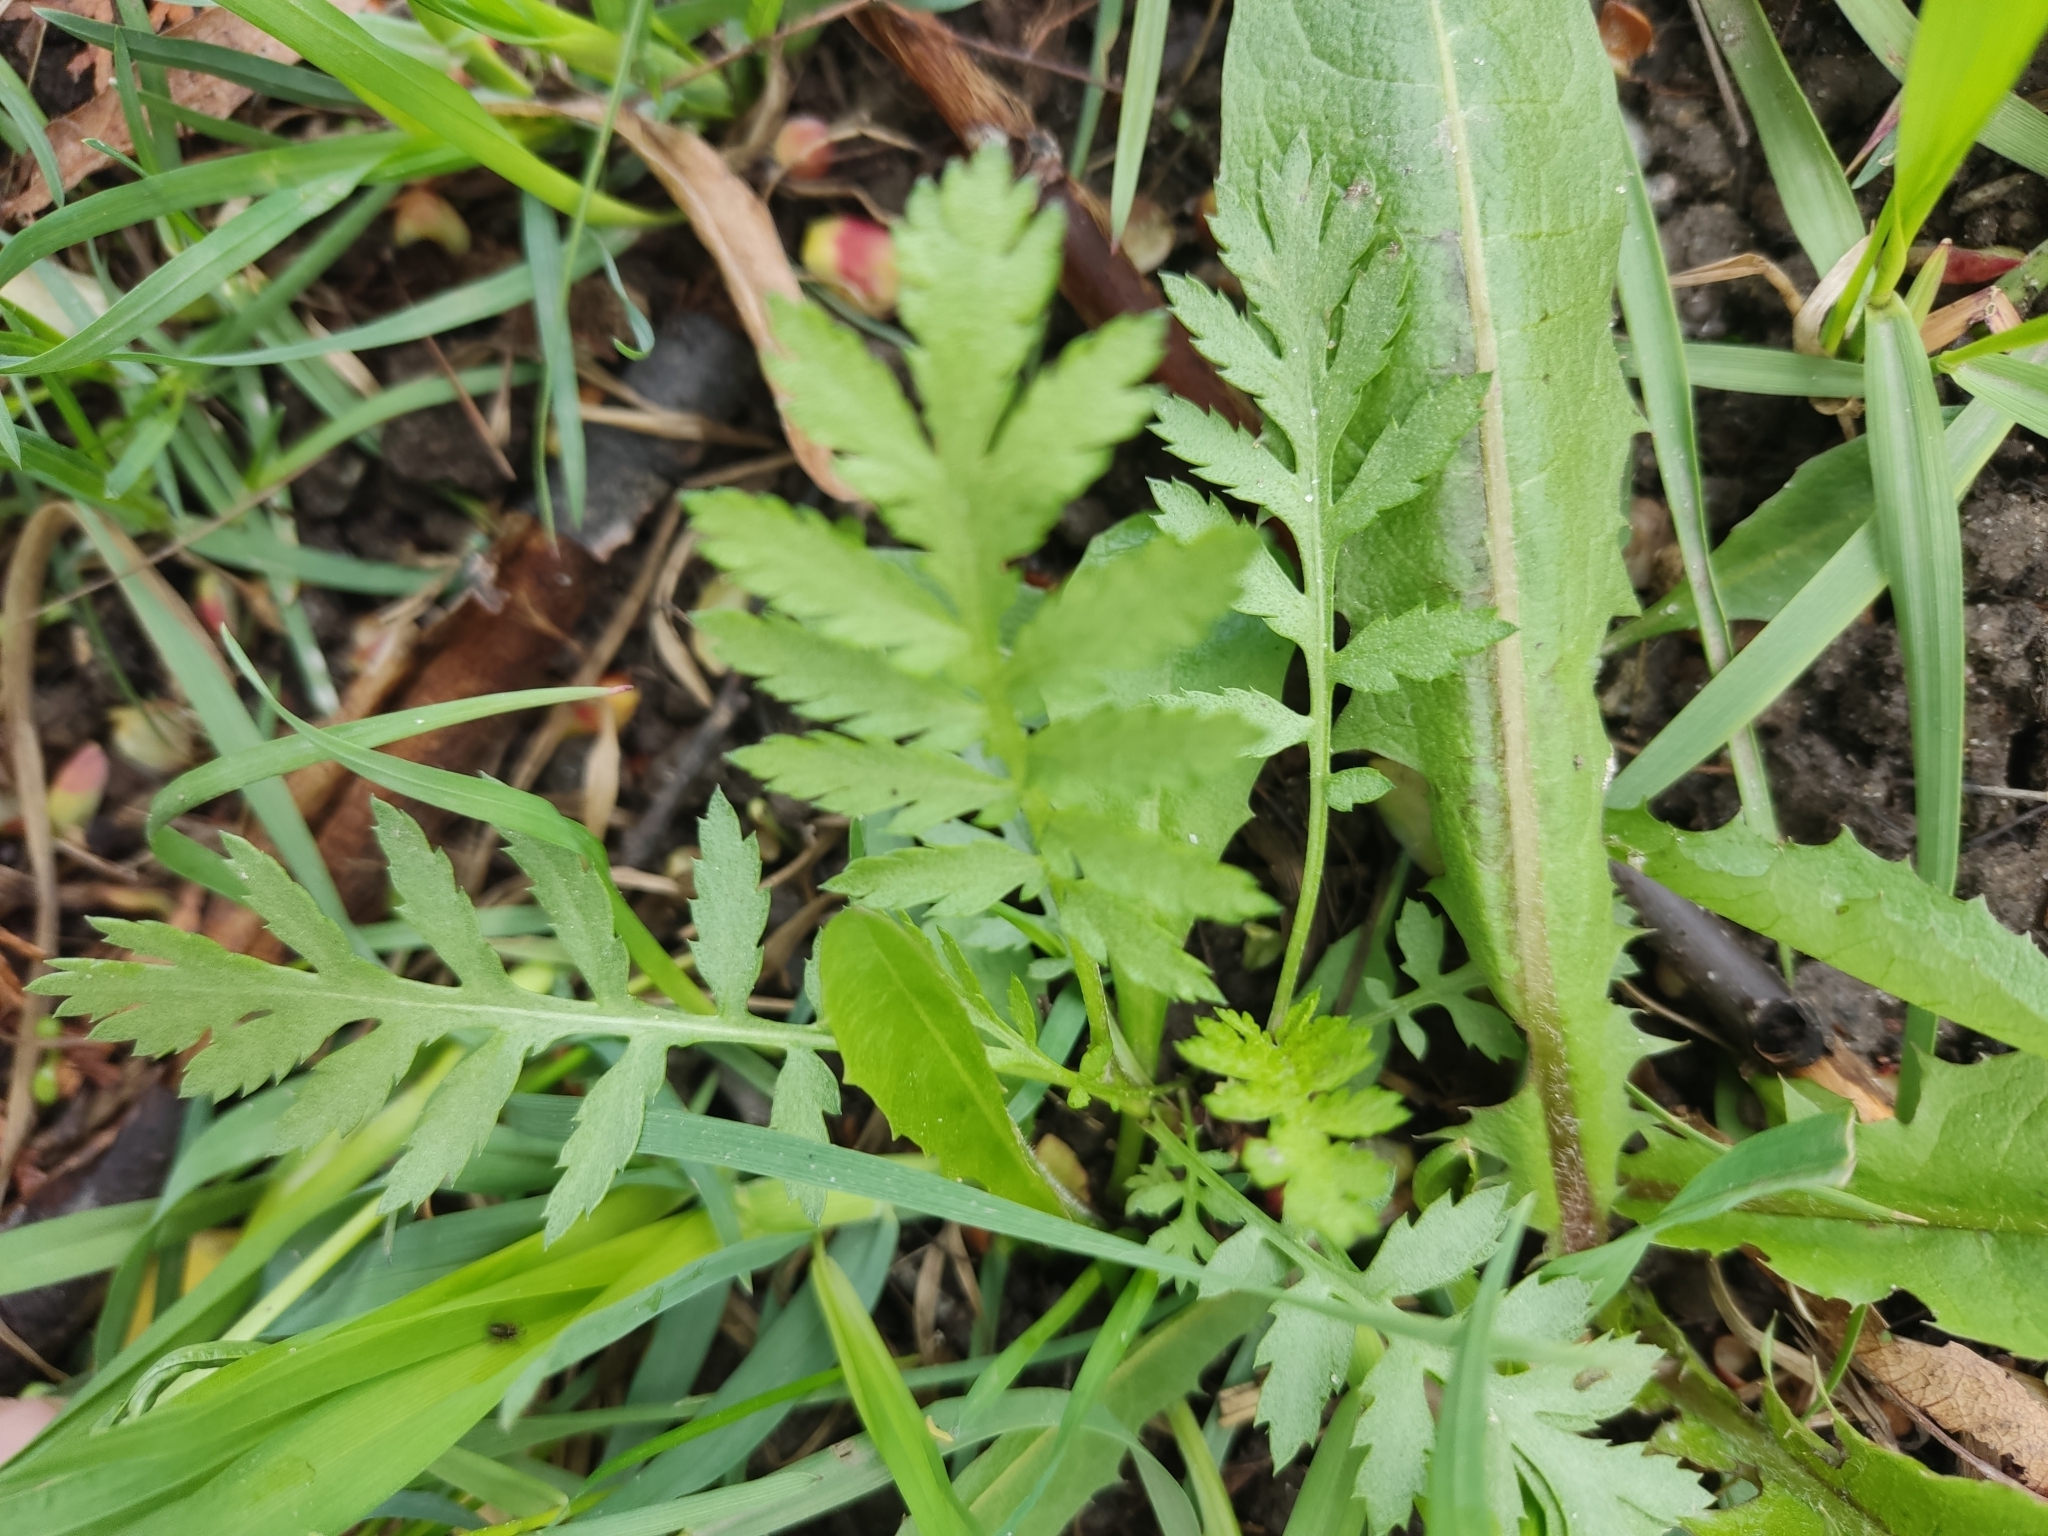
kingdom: Plantae
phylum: Tracheophyta
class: Magnoliopsida
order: Asterales
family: Asteraceae
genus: Tanacetum
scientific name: Tanacetum vulgare
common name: Common tansy
